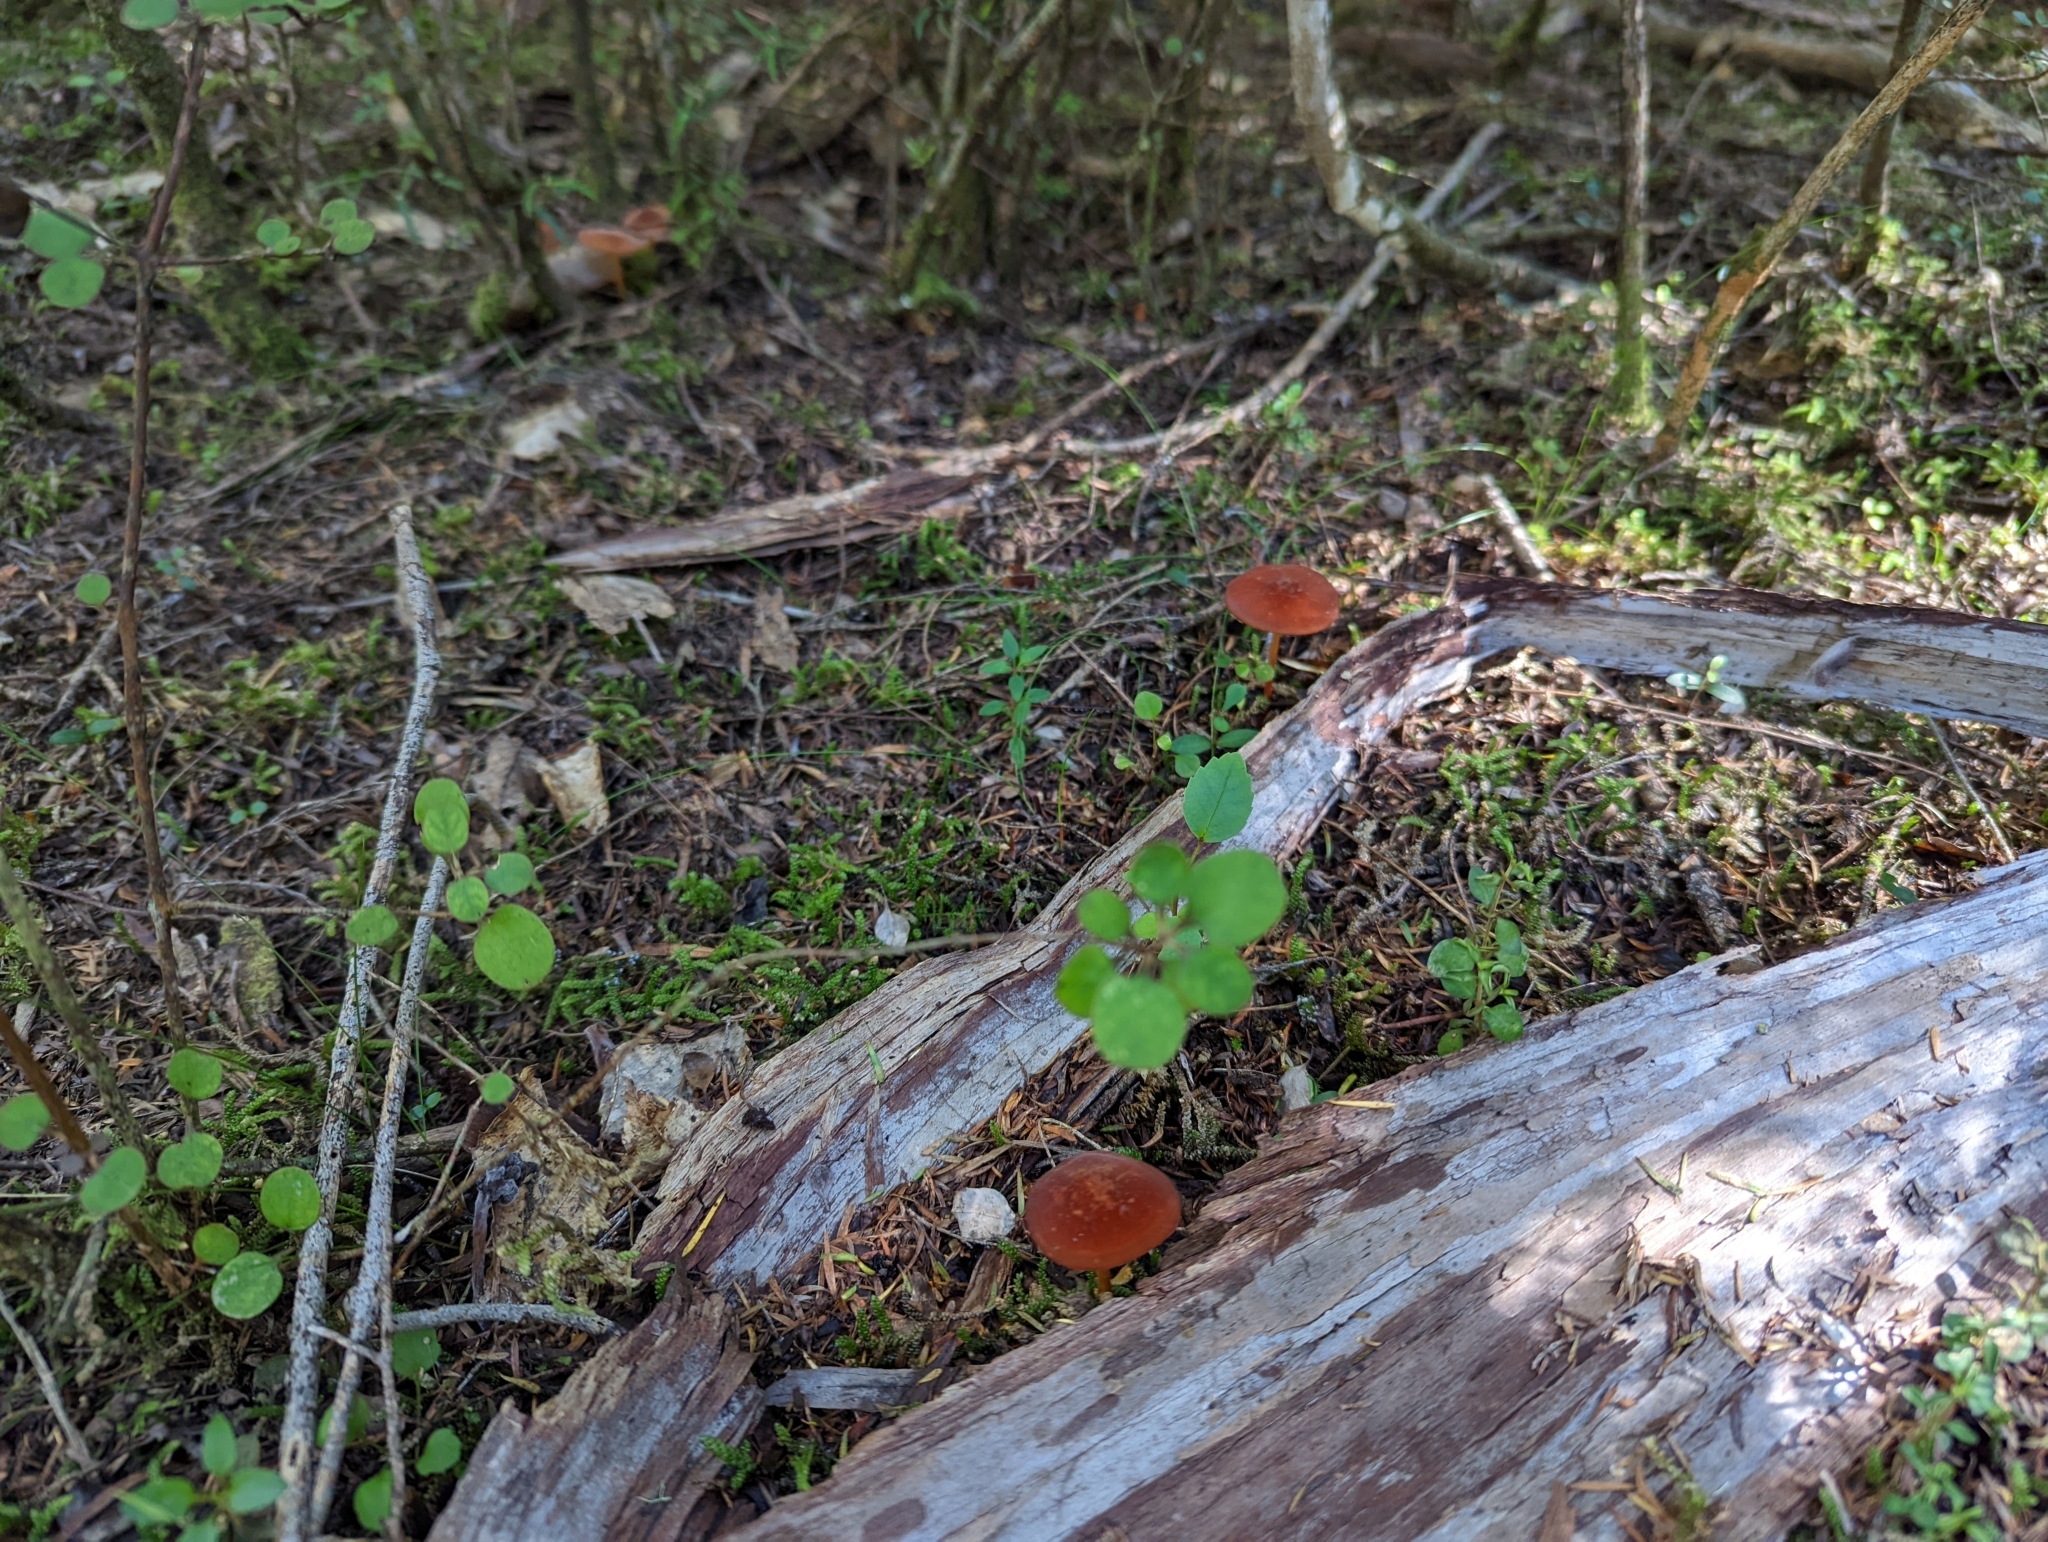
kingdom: Fungi
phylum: Basidiomycota
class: Agaricomycetes
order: Agaricales
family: Marasmiaceae
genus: Marasmius
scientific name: Marasmius elegans
